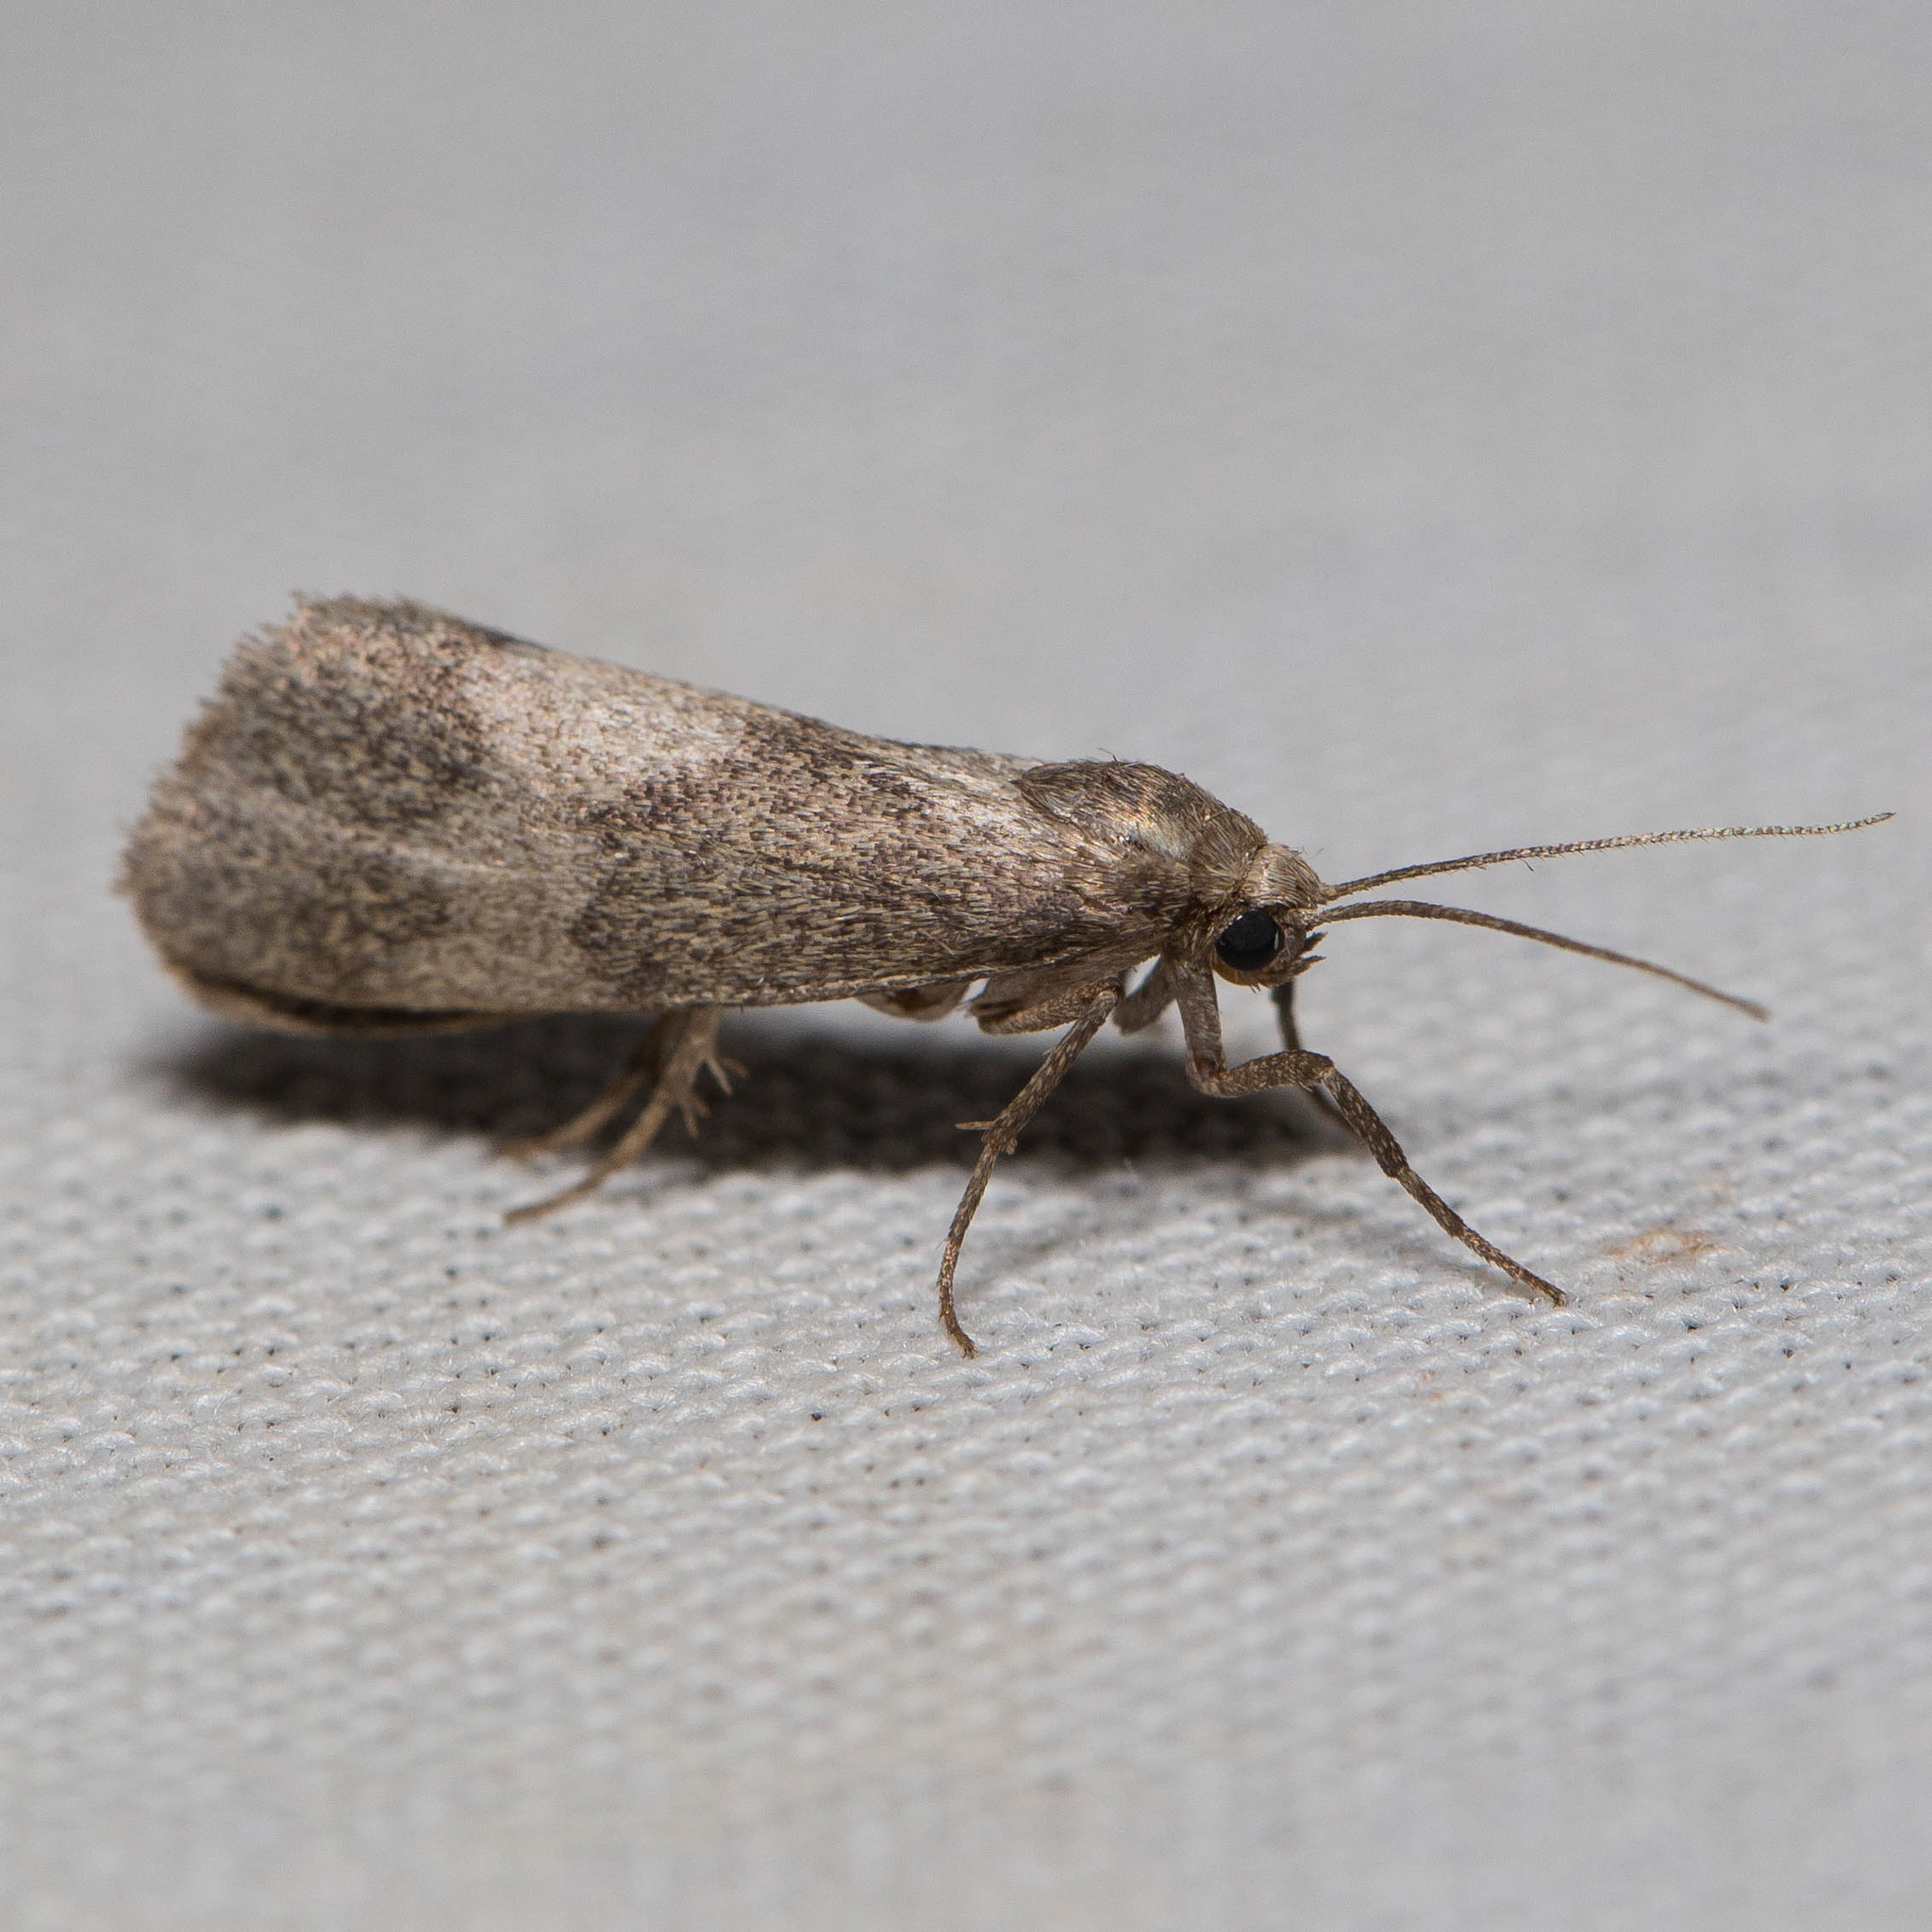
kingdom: Animalia
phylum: Arthropoda
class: Insecta
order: Lepidoptera
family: Erebidae
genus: Cisthene
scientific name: Cisthene faustinula
